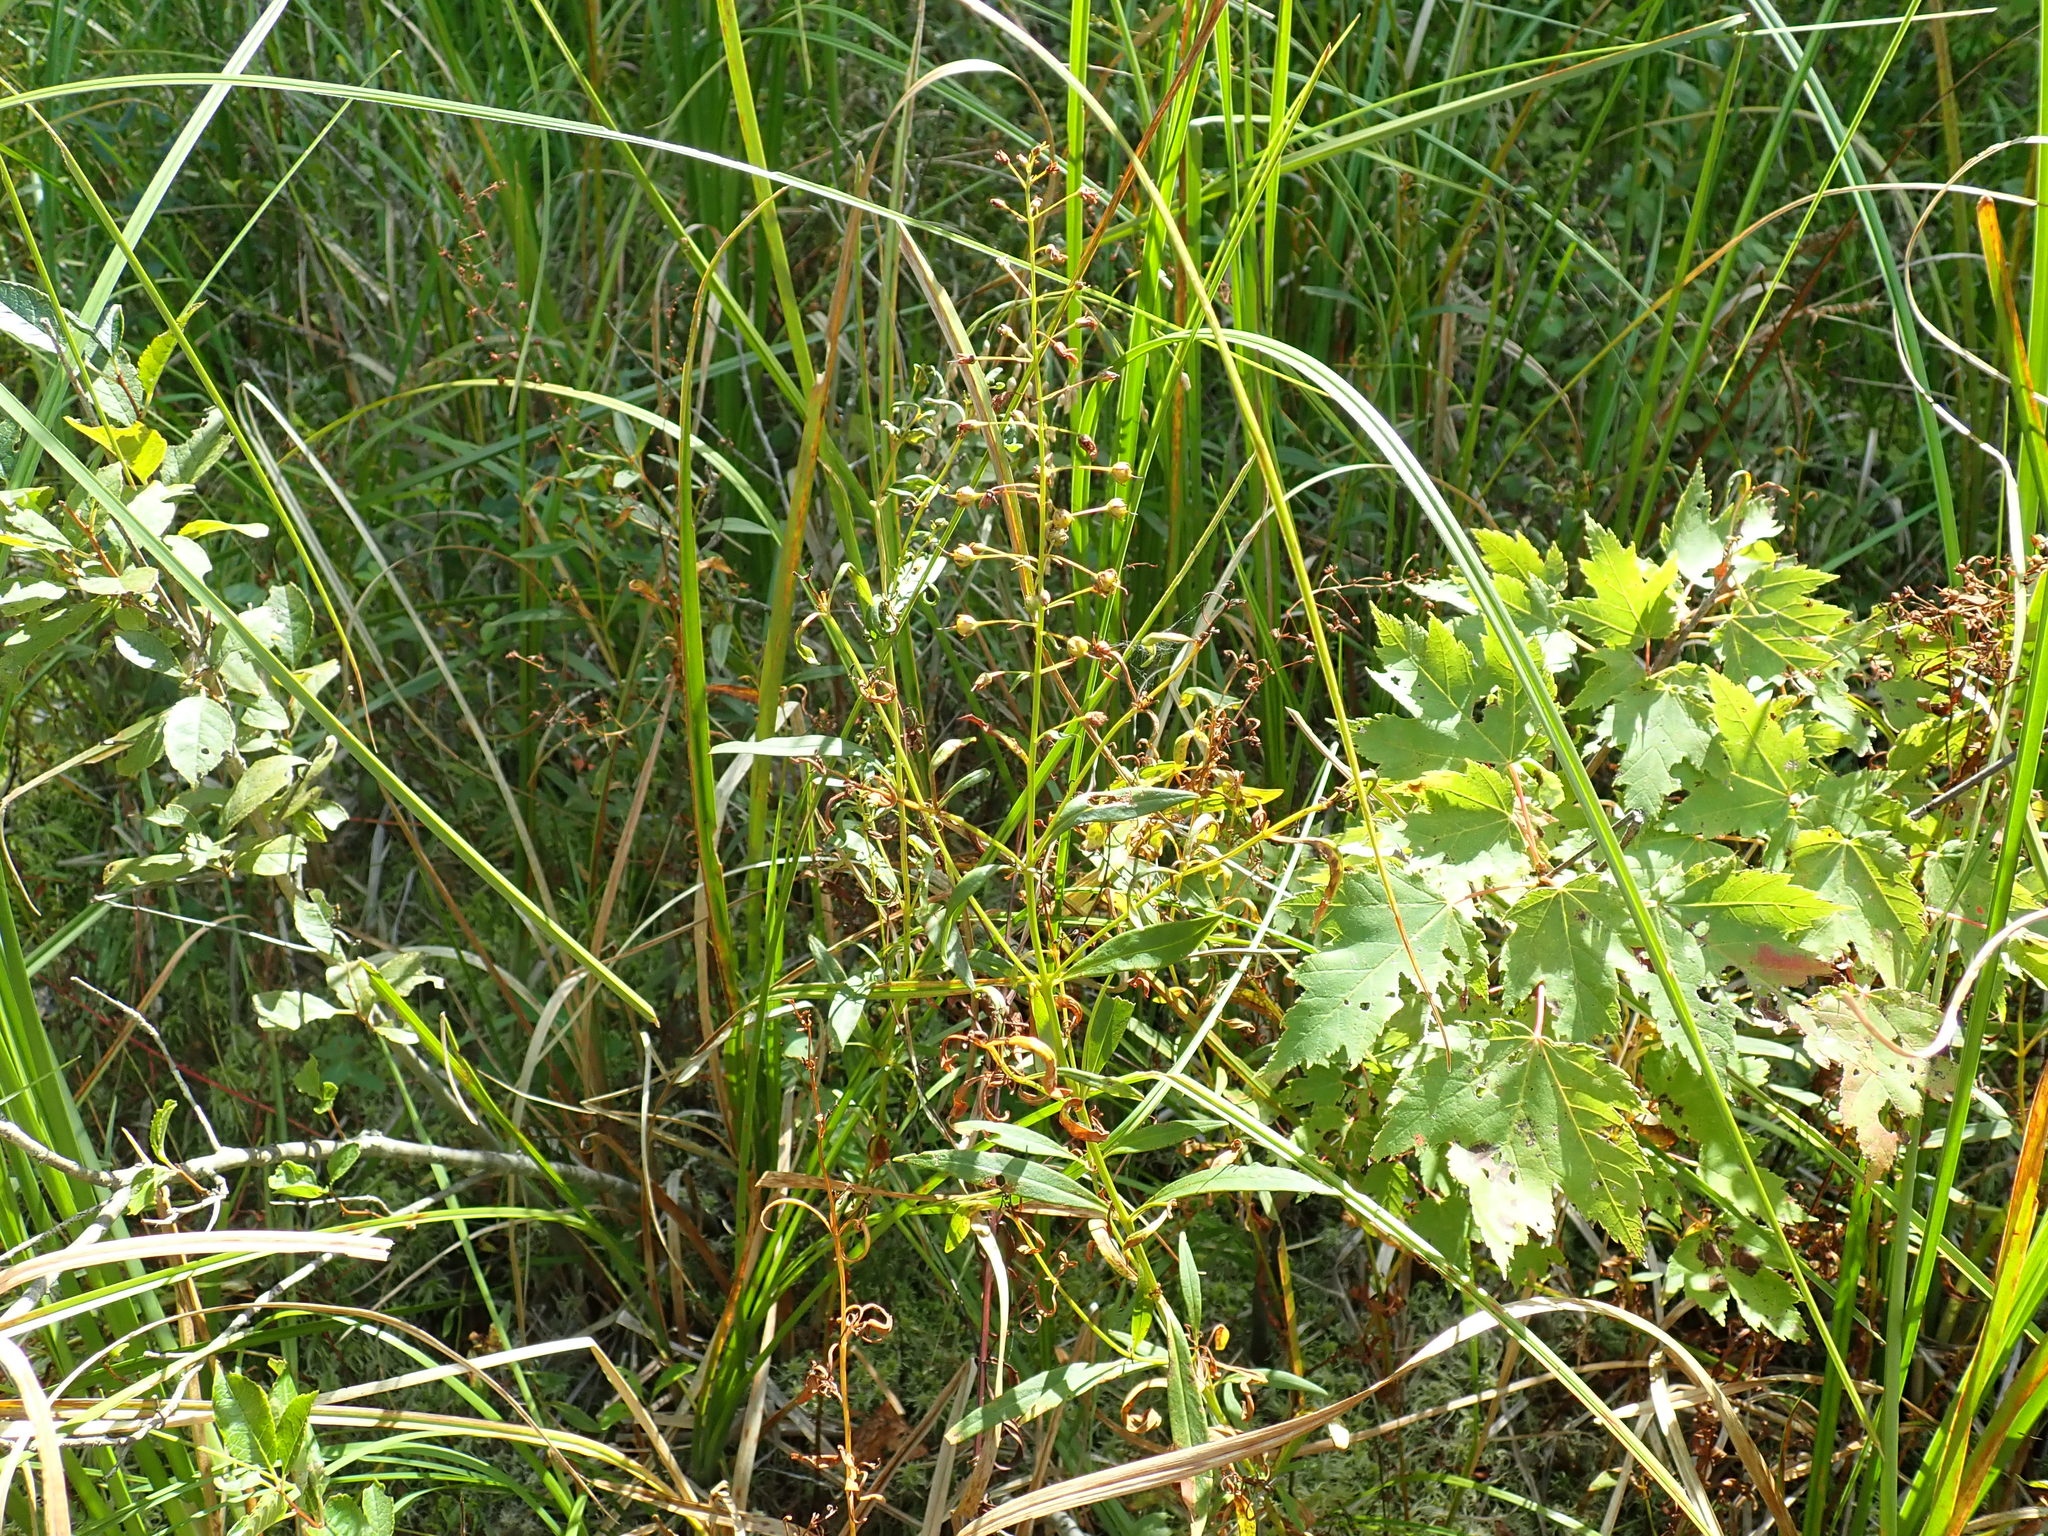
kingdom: Plantae
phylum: Tracheophyta
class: Magnoliopsida
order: Ericales
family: Primulaceae
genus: Lysimachia
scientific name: Lysimachia terrestris
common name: Lake loosestrife
